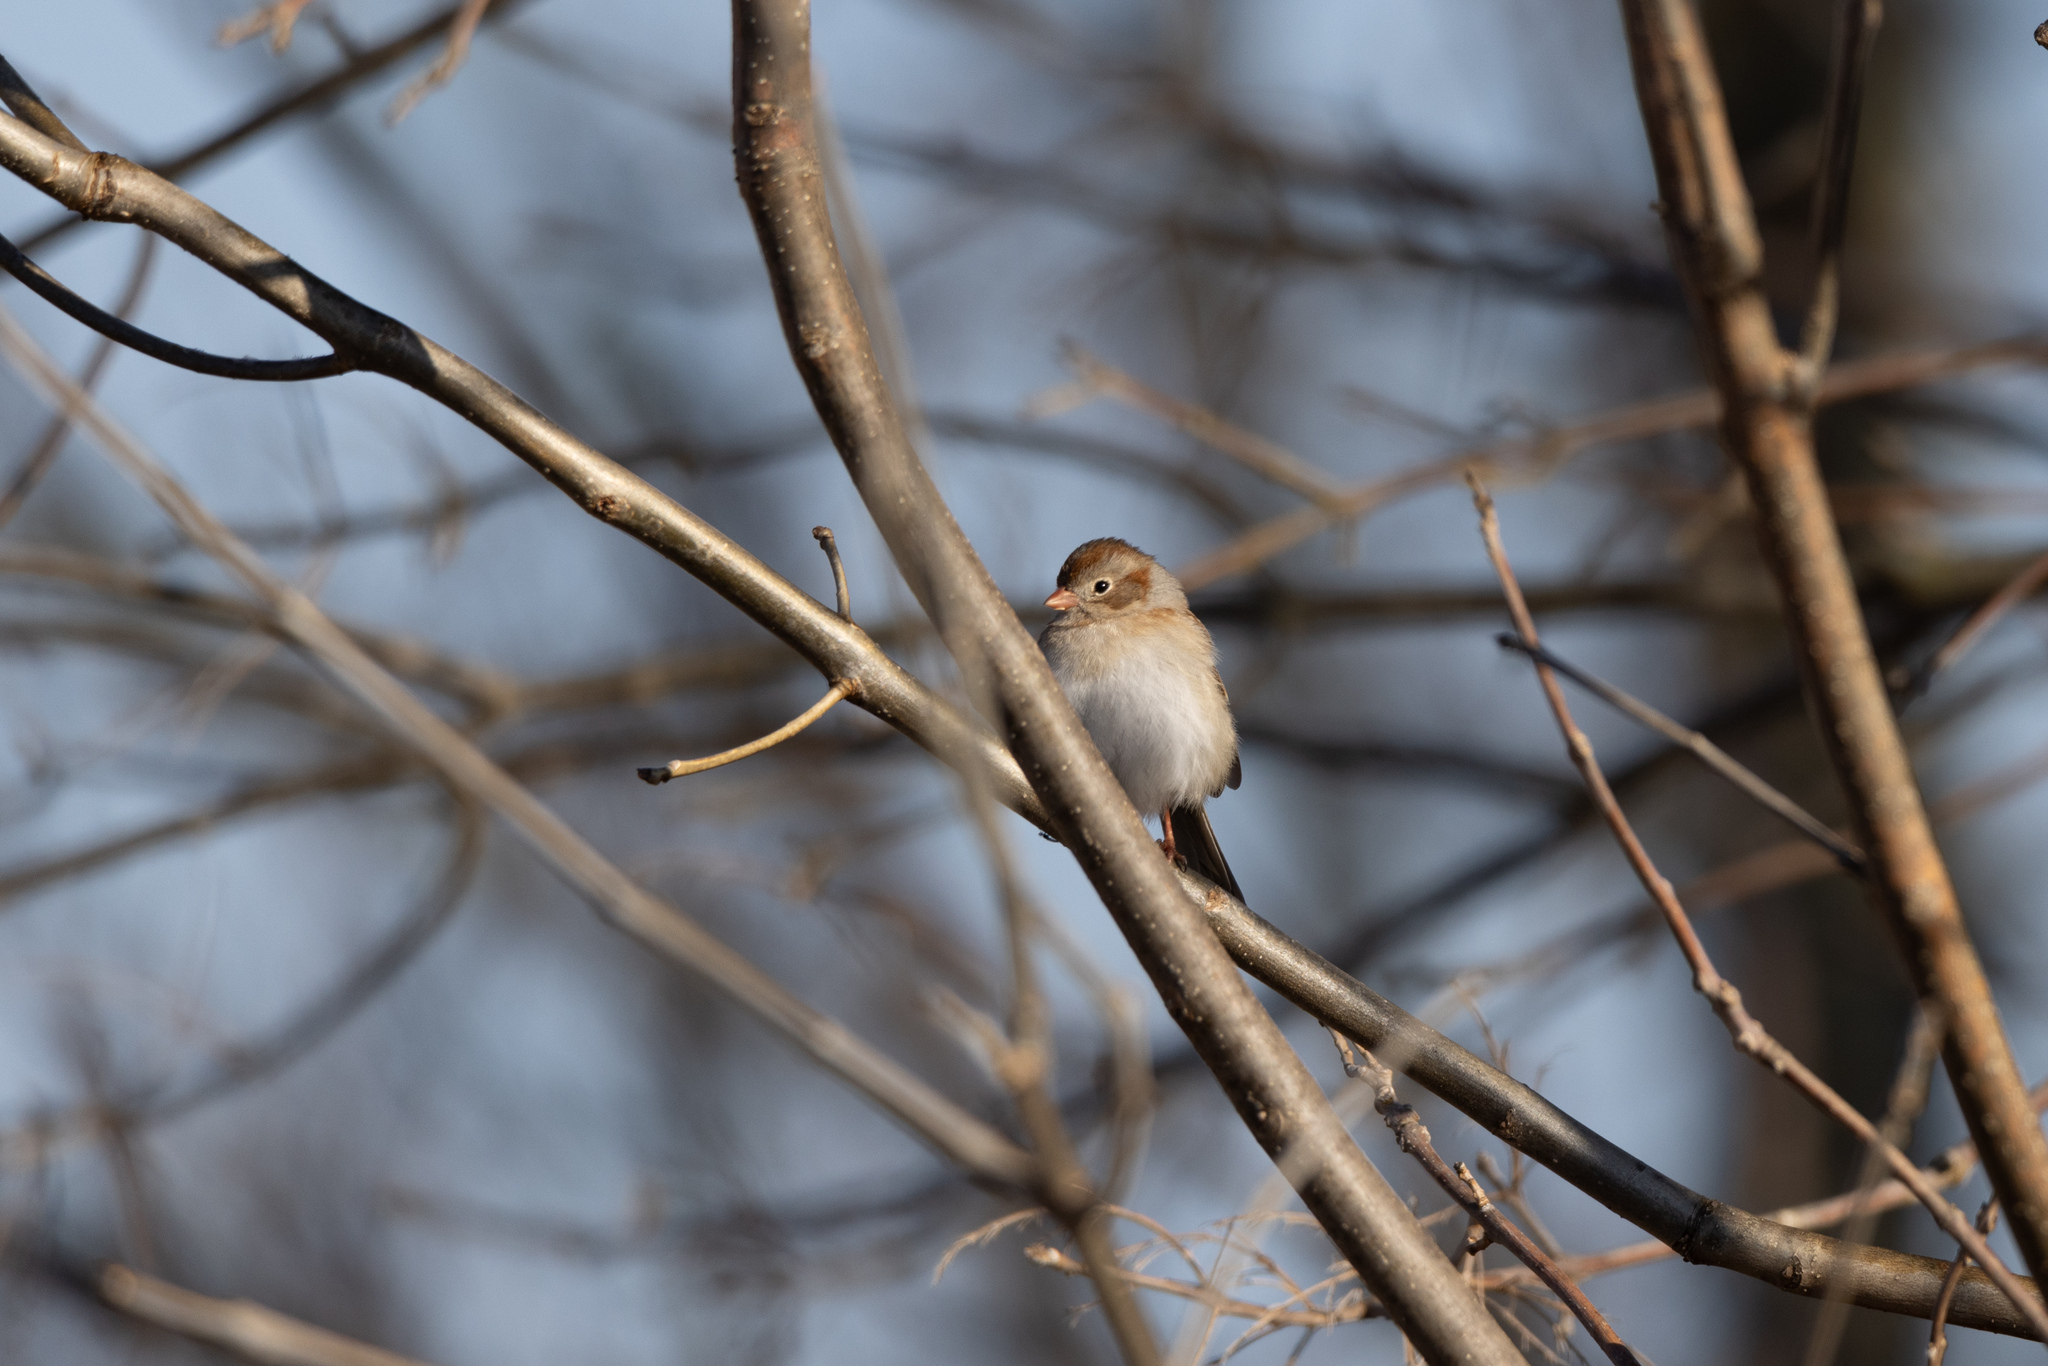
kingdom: Animalia
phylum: Chordata
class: Aves
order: Passeriformes
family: Passerellidae
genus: Spizella
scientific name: Spizella pusilla
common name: Field sparrow
